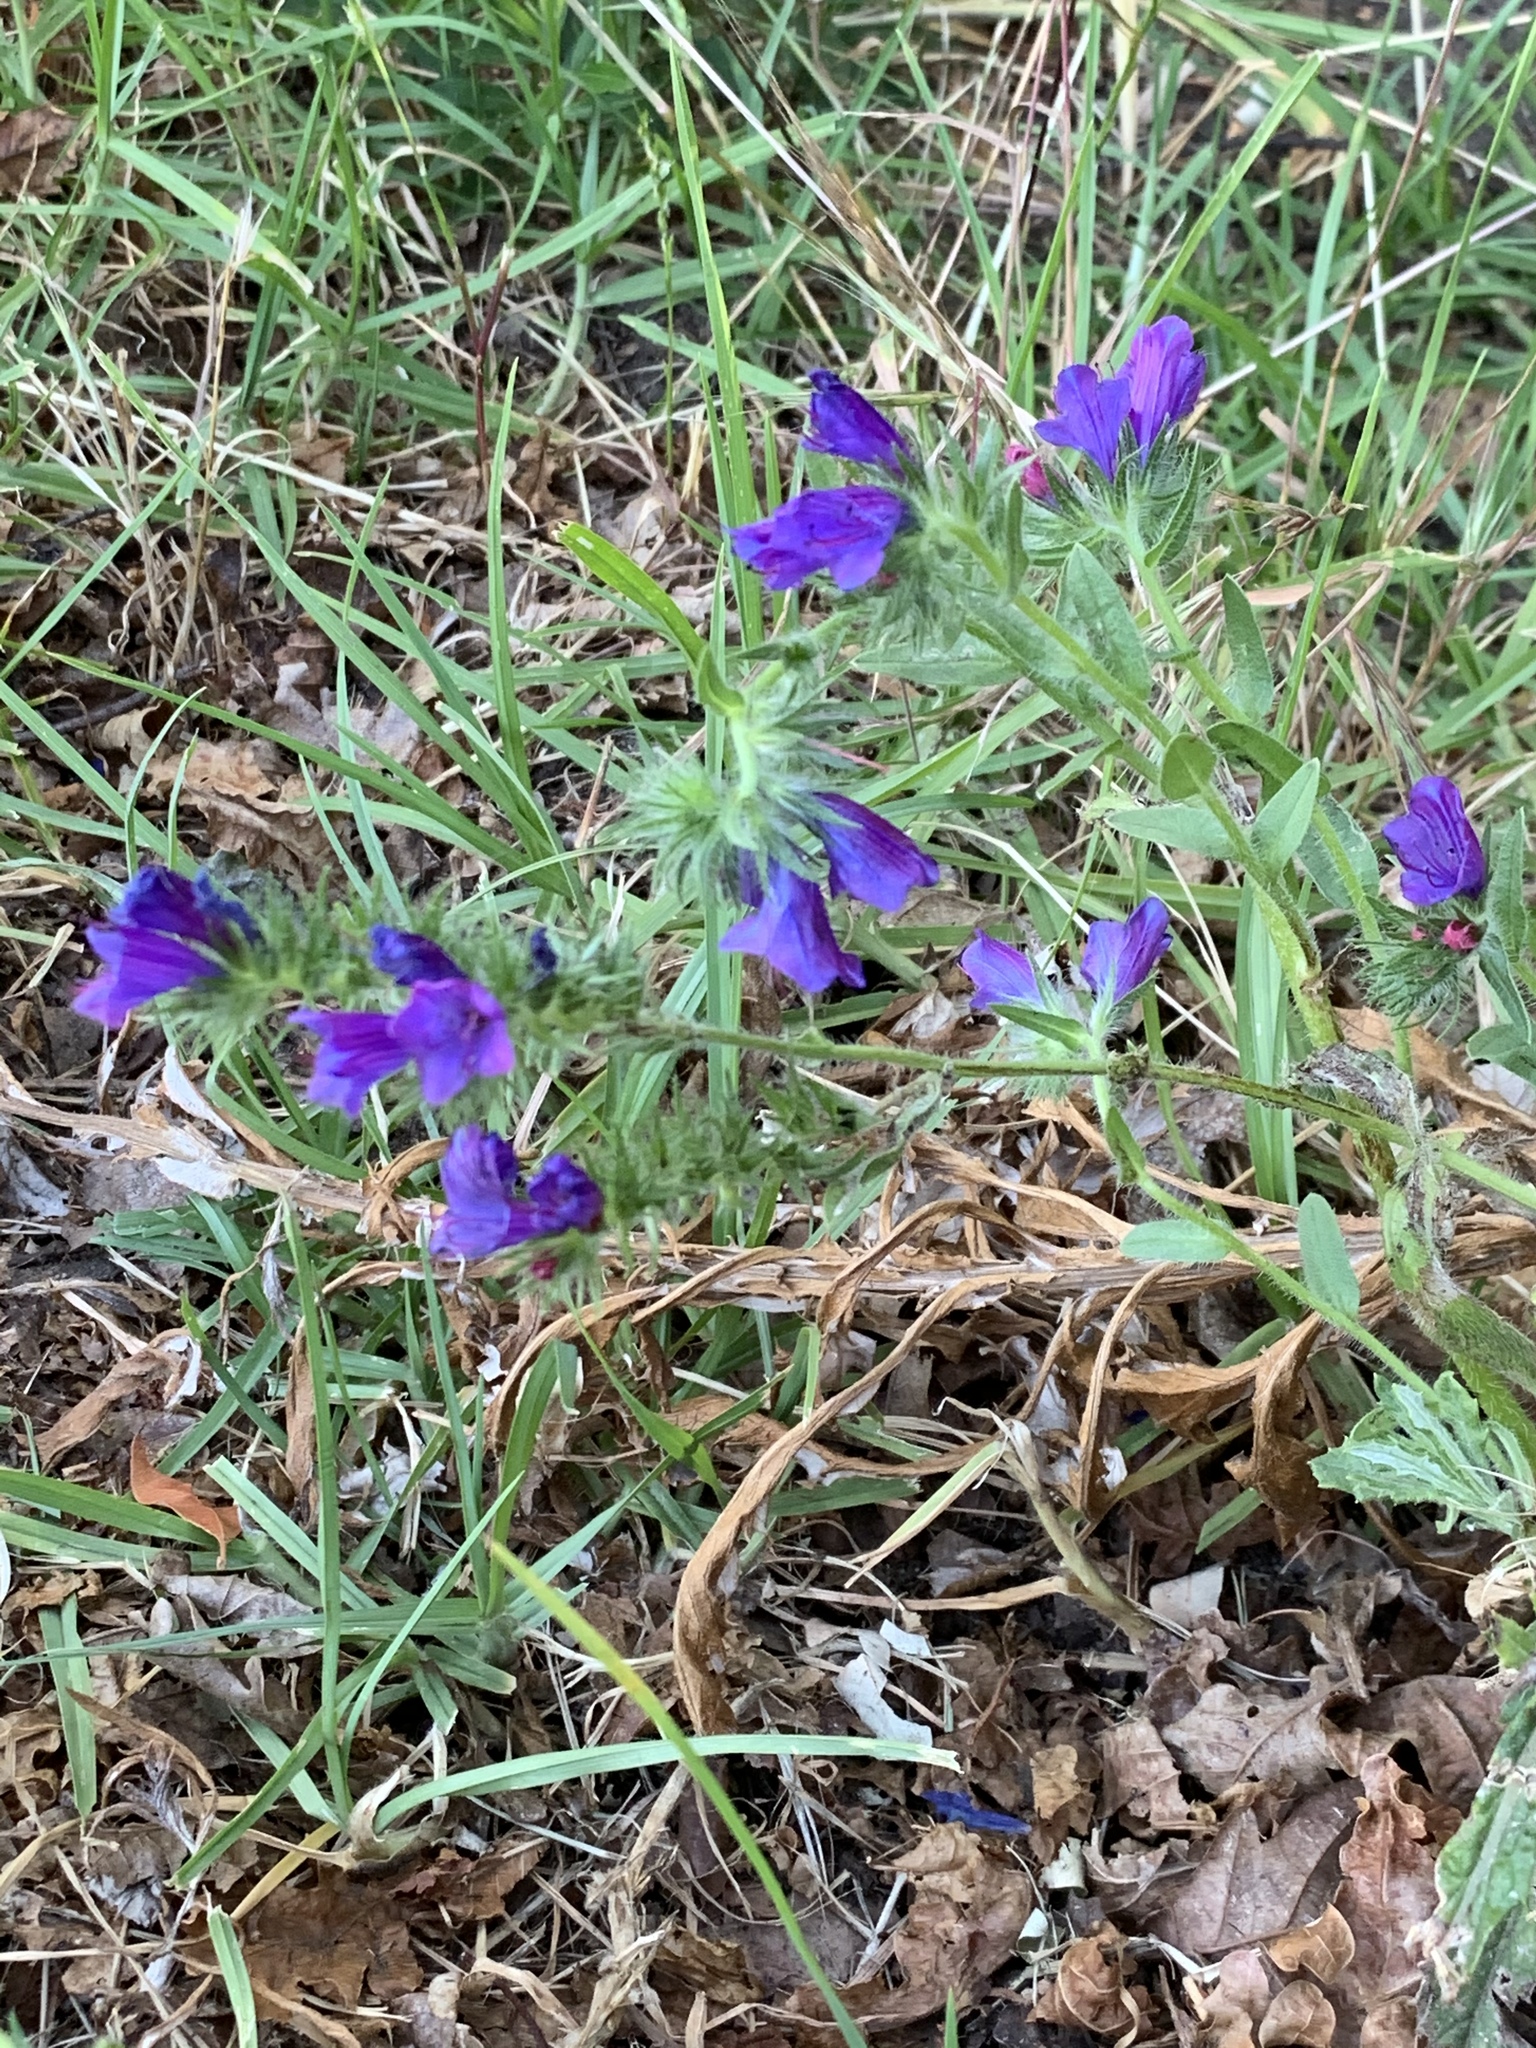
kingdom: Plantae
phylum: Tracheophyta
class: Magnoliopsida
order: Boraginales
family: Boraginaceae
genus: Echium
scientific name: Echium plantagineum
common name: Purple viper's-bugloss
